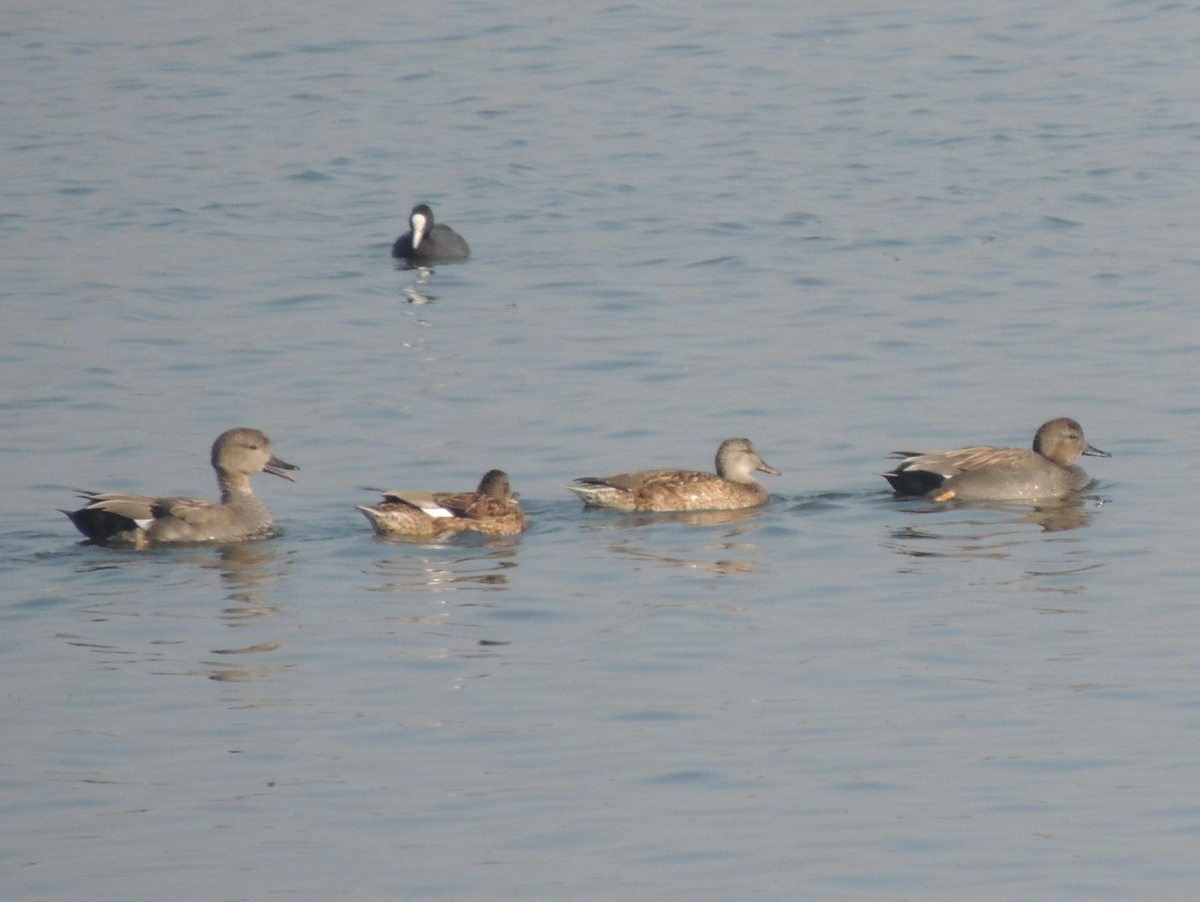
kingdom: Animalia
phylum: Chordata
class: Aves
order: Anseriformes
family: Anatidae
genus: Mareca
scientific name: Mareca strepera
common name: Gadwall
